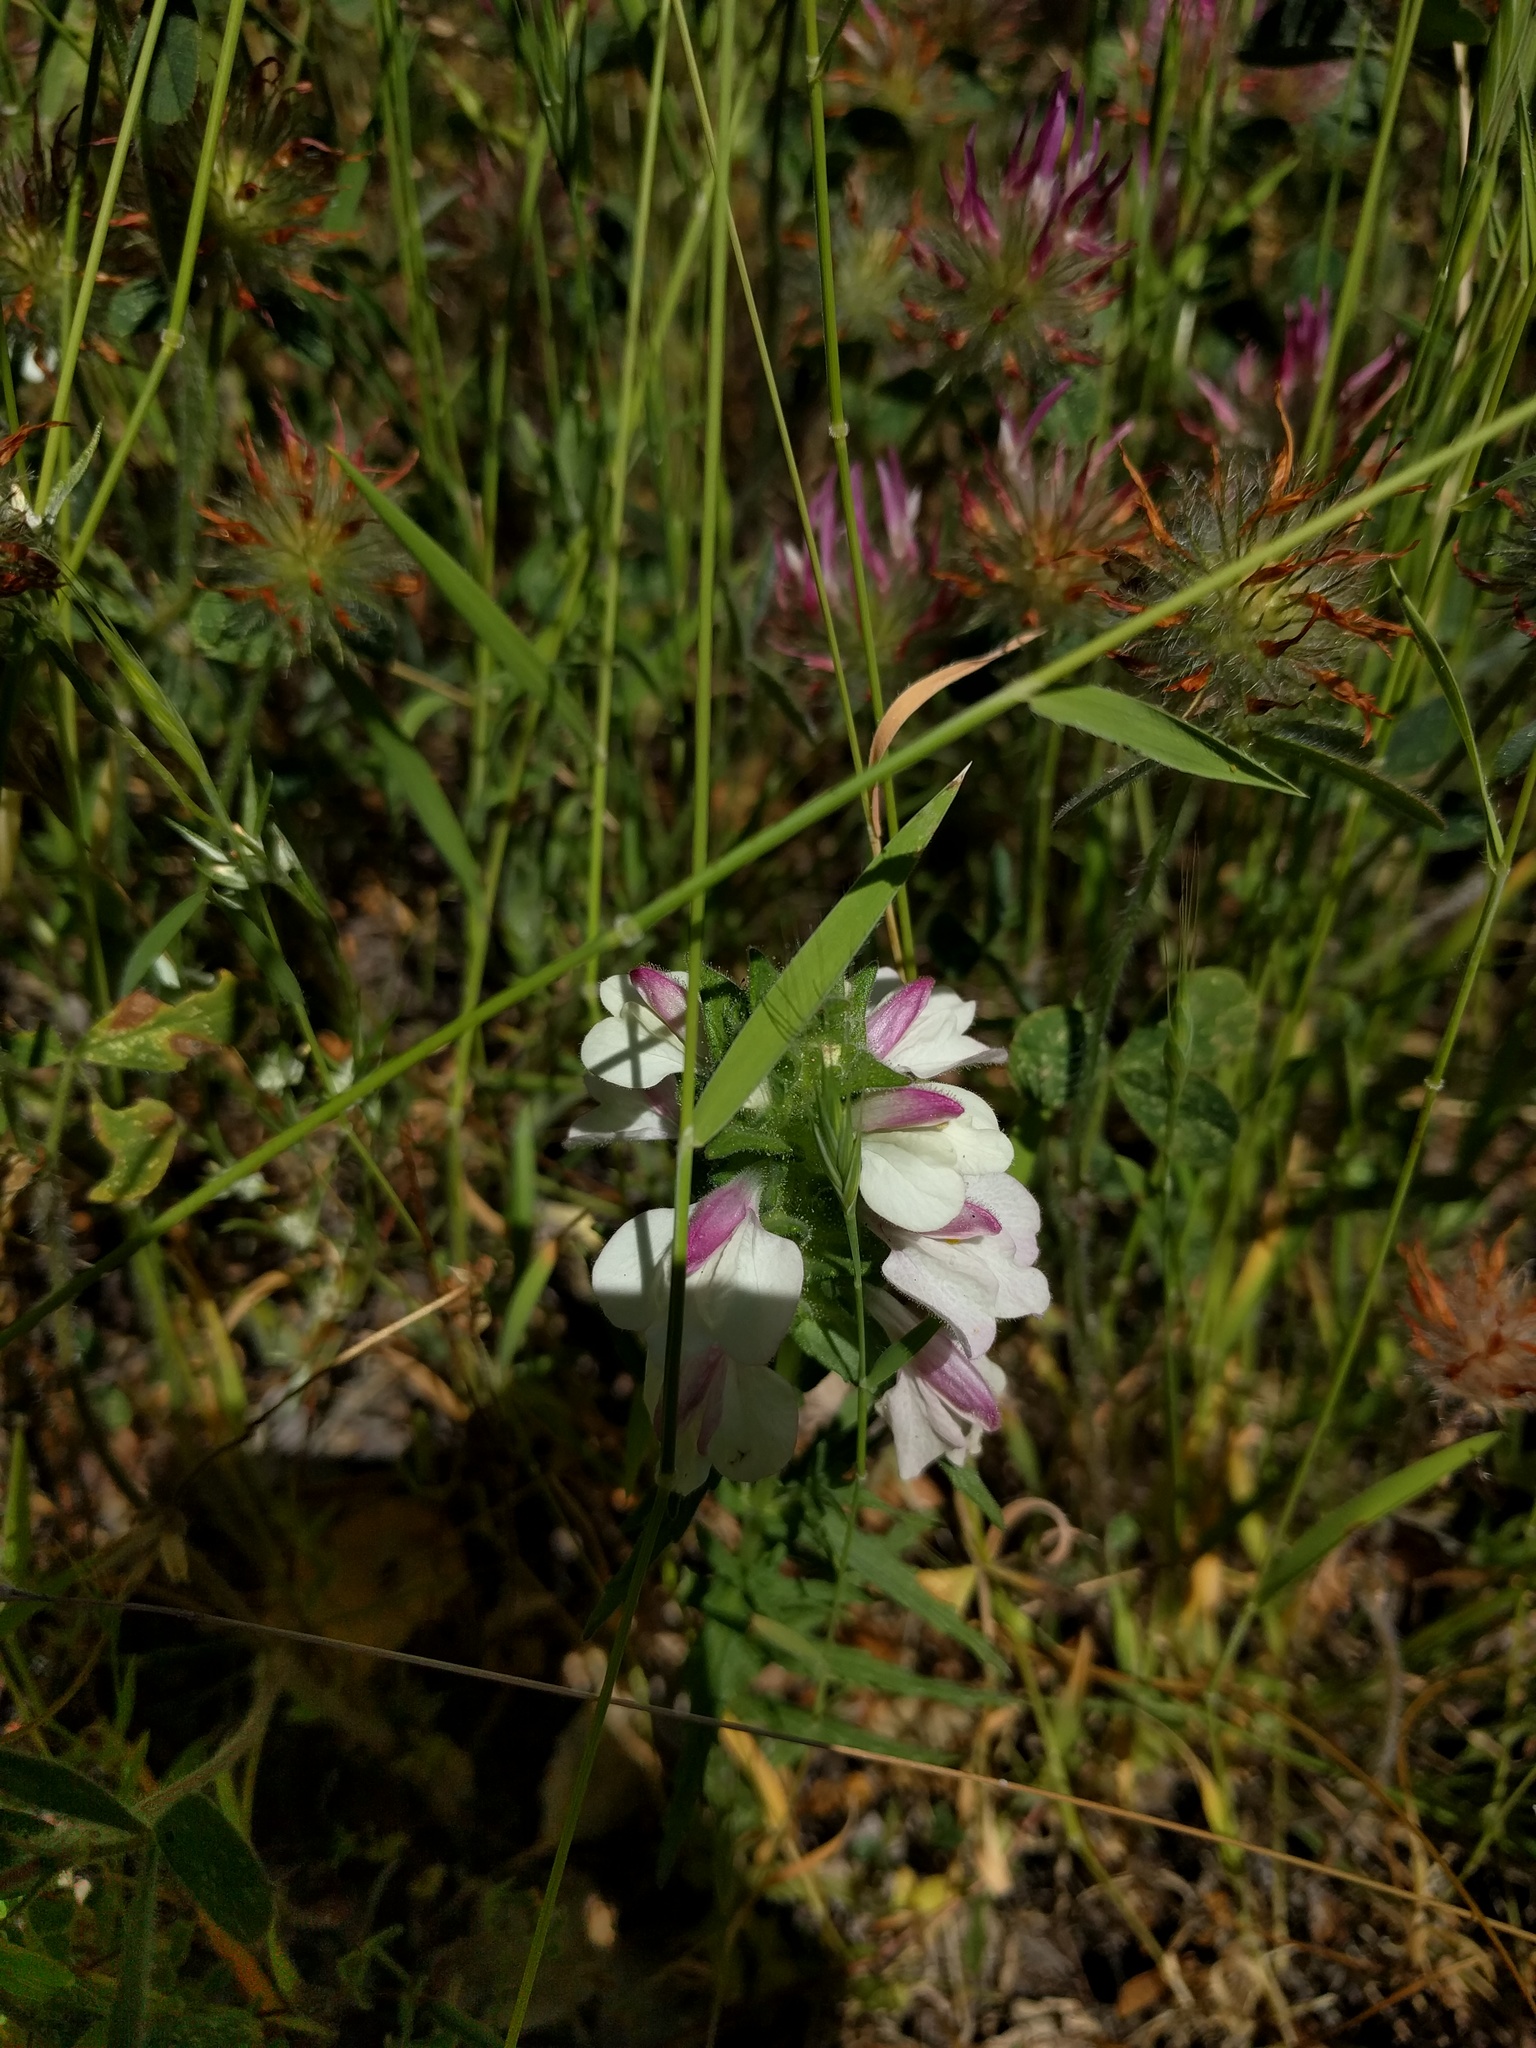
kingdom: Plantae
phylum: Tracheophyta
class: Magnoliopsida
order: Lamiales
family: Orobanchaceae
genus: Bellardia
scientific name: Bellardia trixago
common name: Mediterranean lineseed
